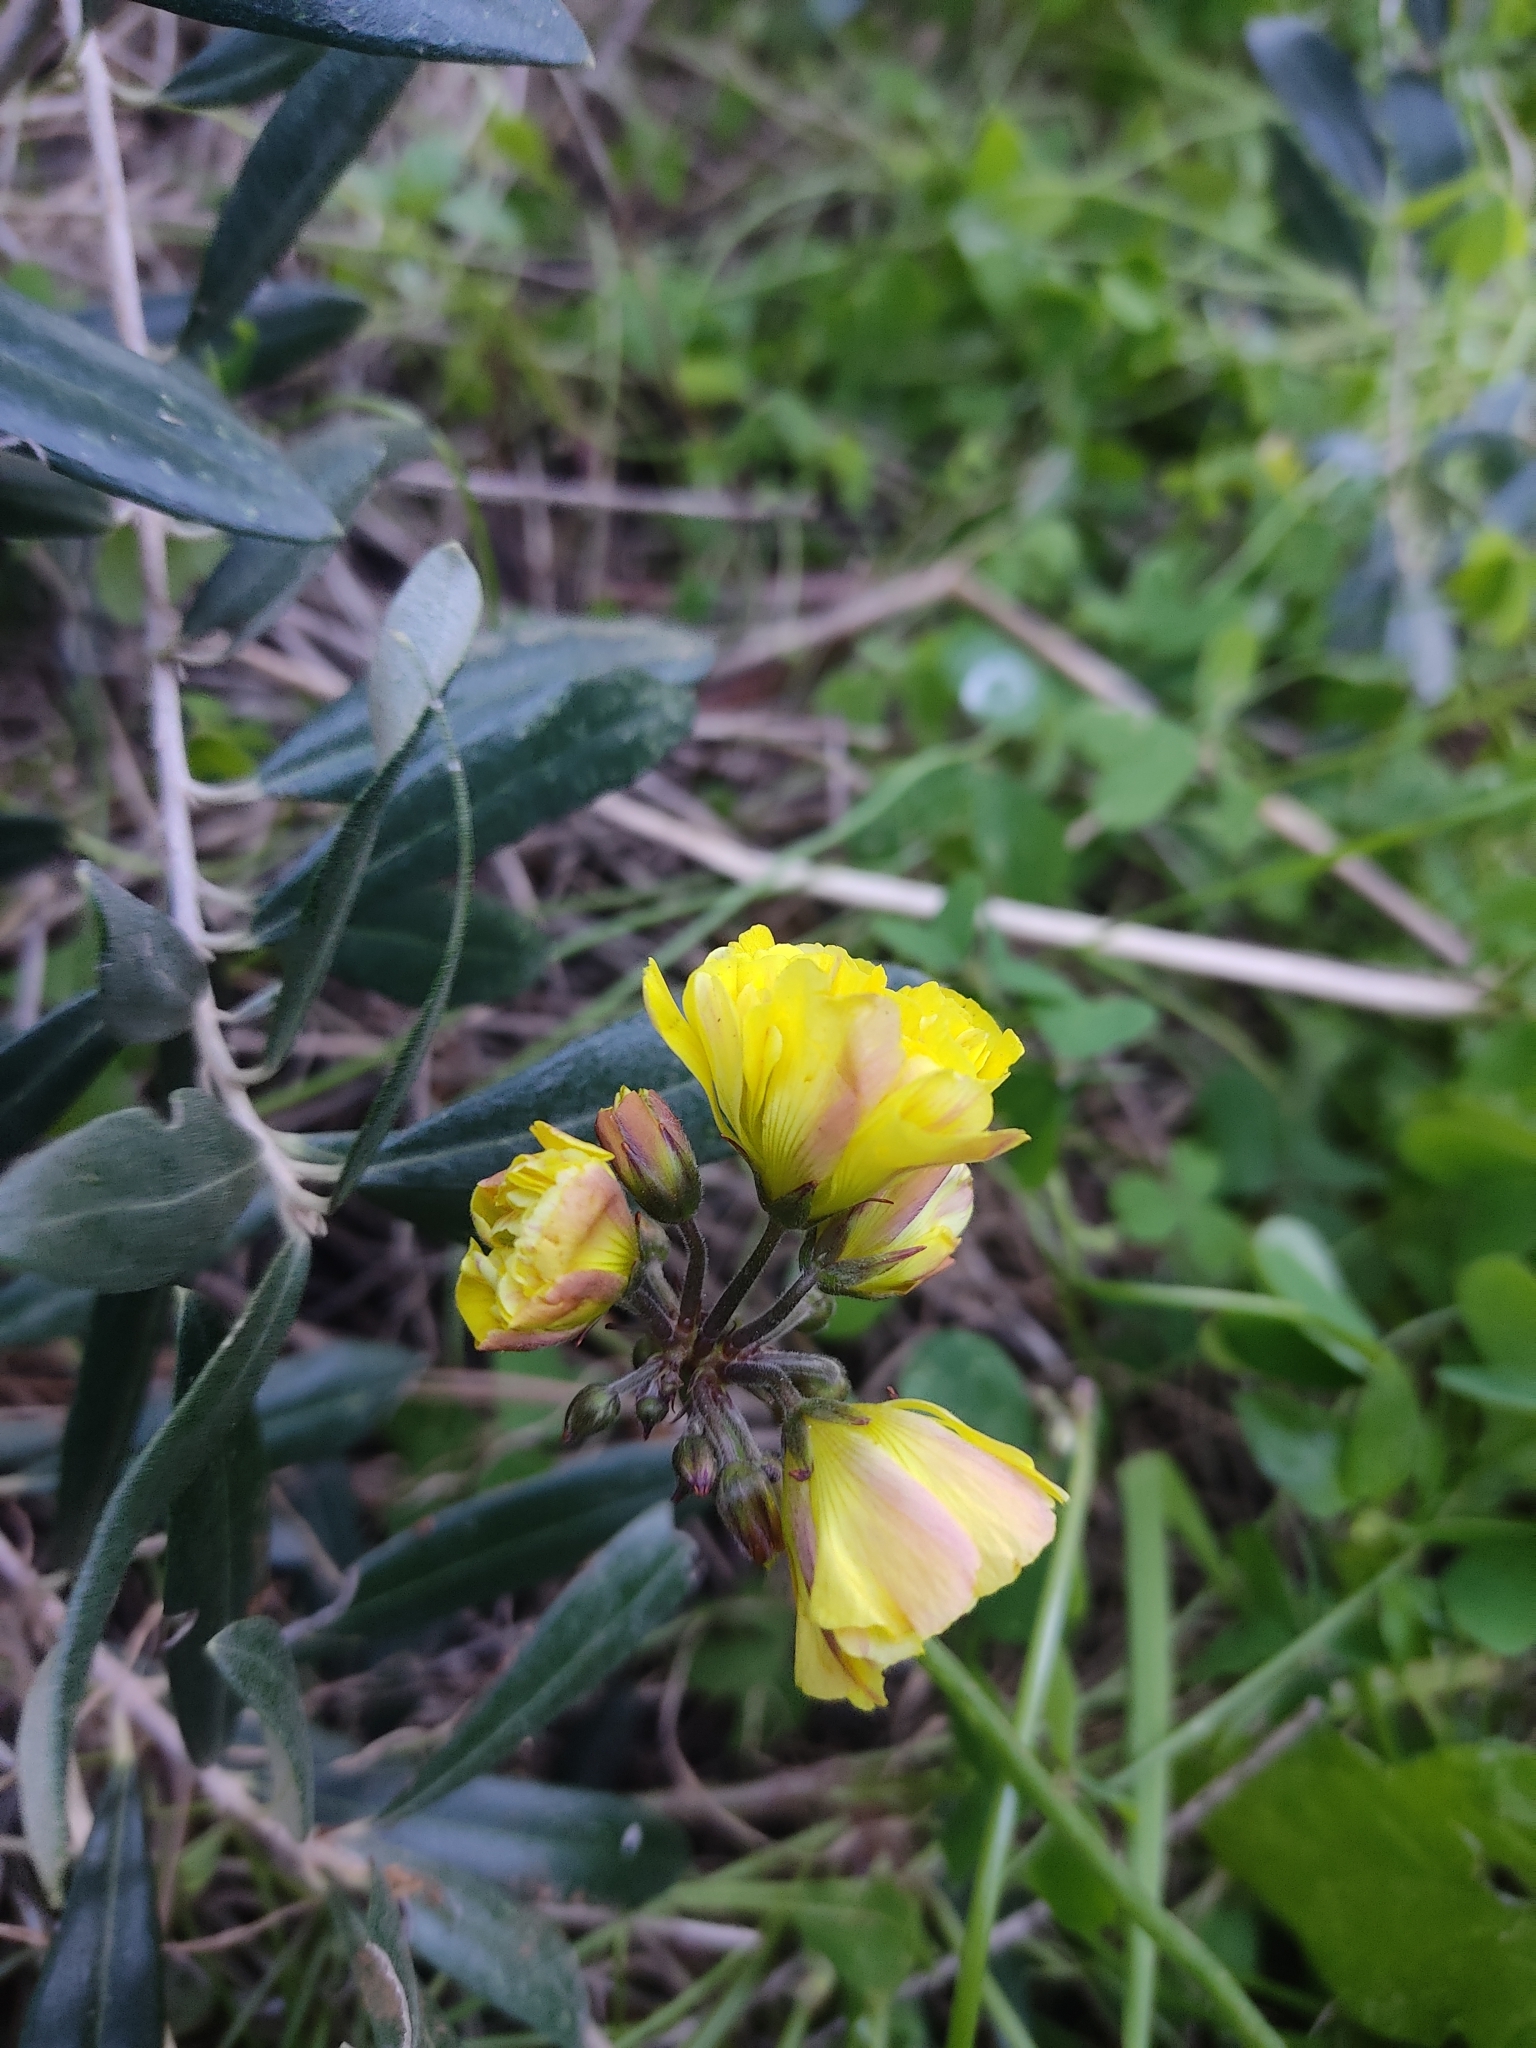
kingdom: Plantae
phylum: Tracheophyta
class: Magnoliopsida
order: Oxalidales
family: Oxalidaceae
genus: Oxalis
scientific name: Oxalis pes-caprae
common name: Bermuda-buttercup
